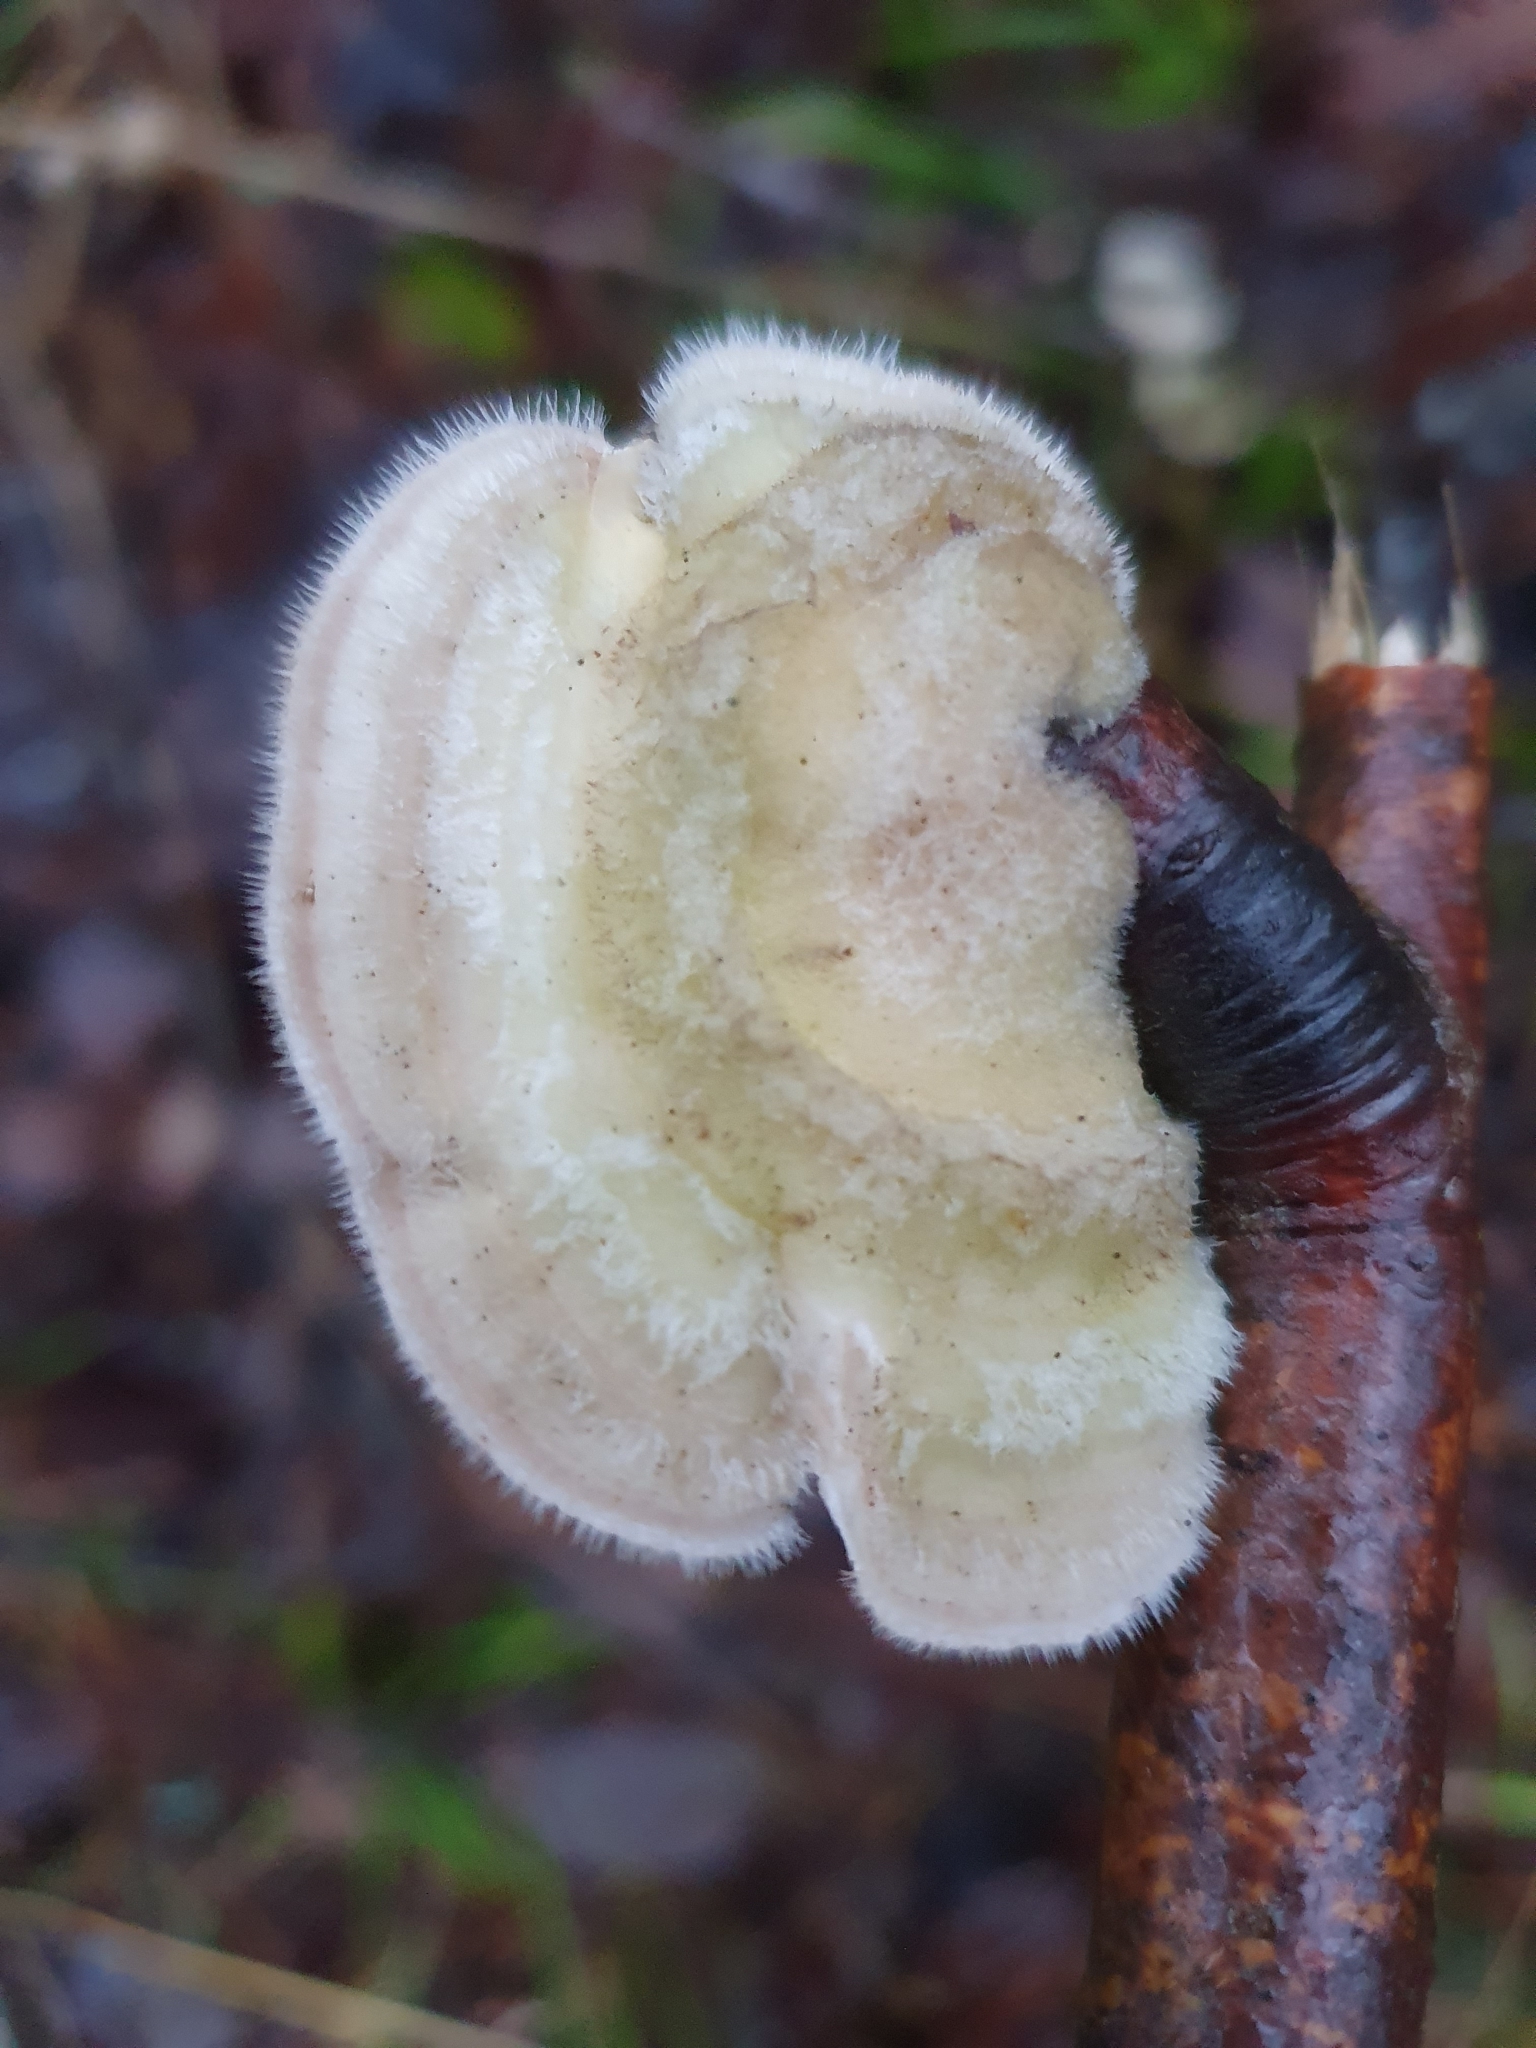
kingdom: Fungi
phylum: Basidiomycota
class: Agaricomycetes
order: Polyporales
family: Polyporaceae
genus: Trametes
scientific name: Trametes hirsuta
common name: Hairy bracket
